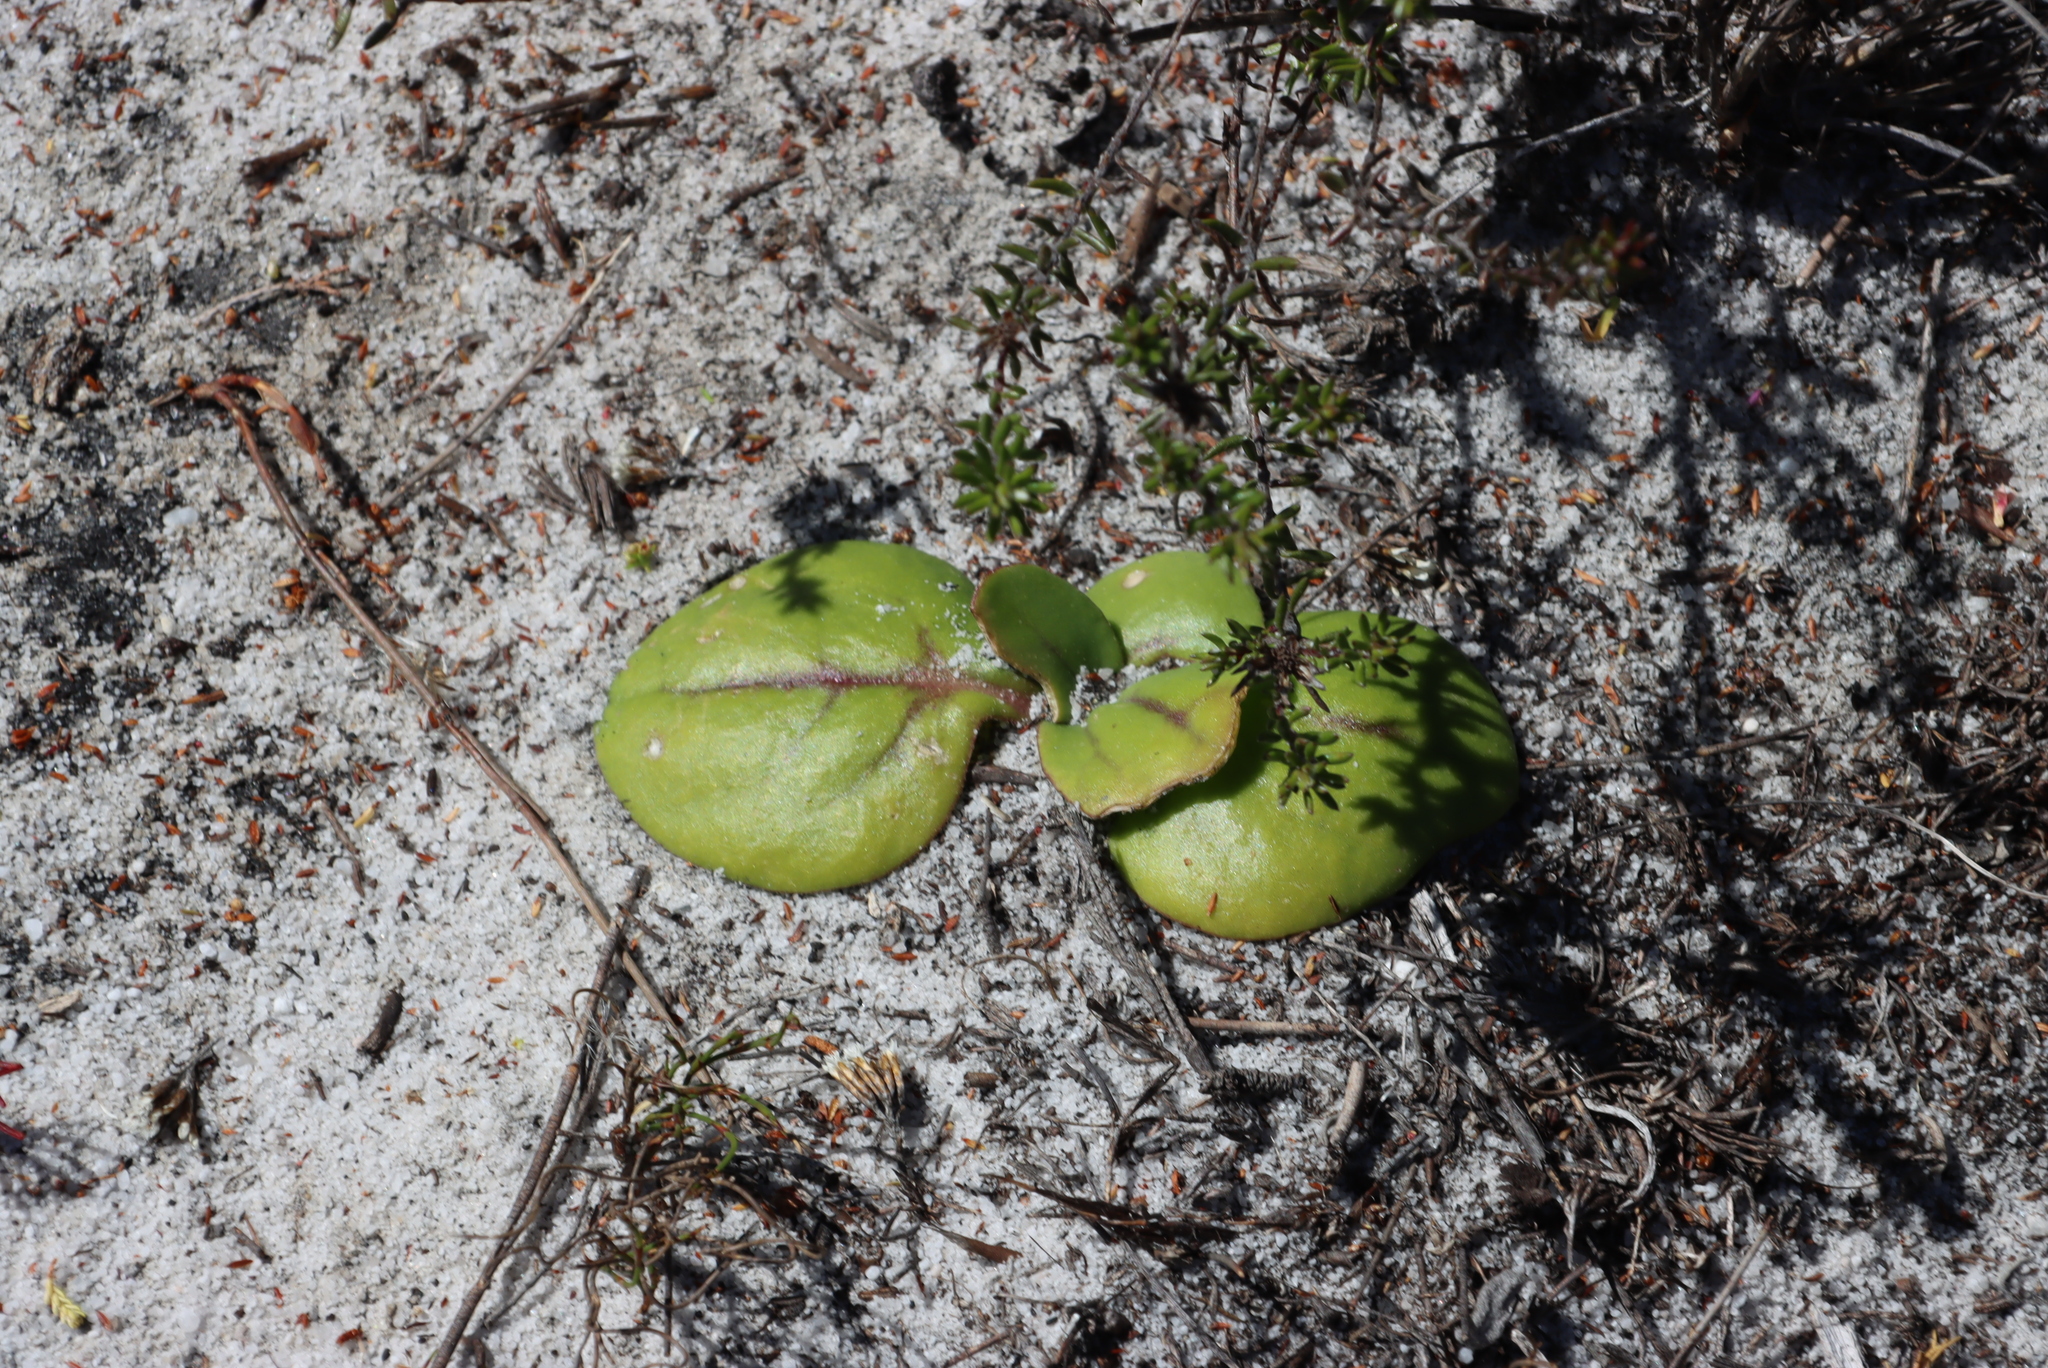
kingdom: Plantae
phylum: Tracheophyta
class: Magnoliopsida
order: Asterales
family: Asteraceae
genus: Othonna
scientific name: Othonna bulbosa
